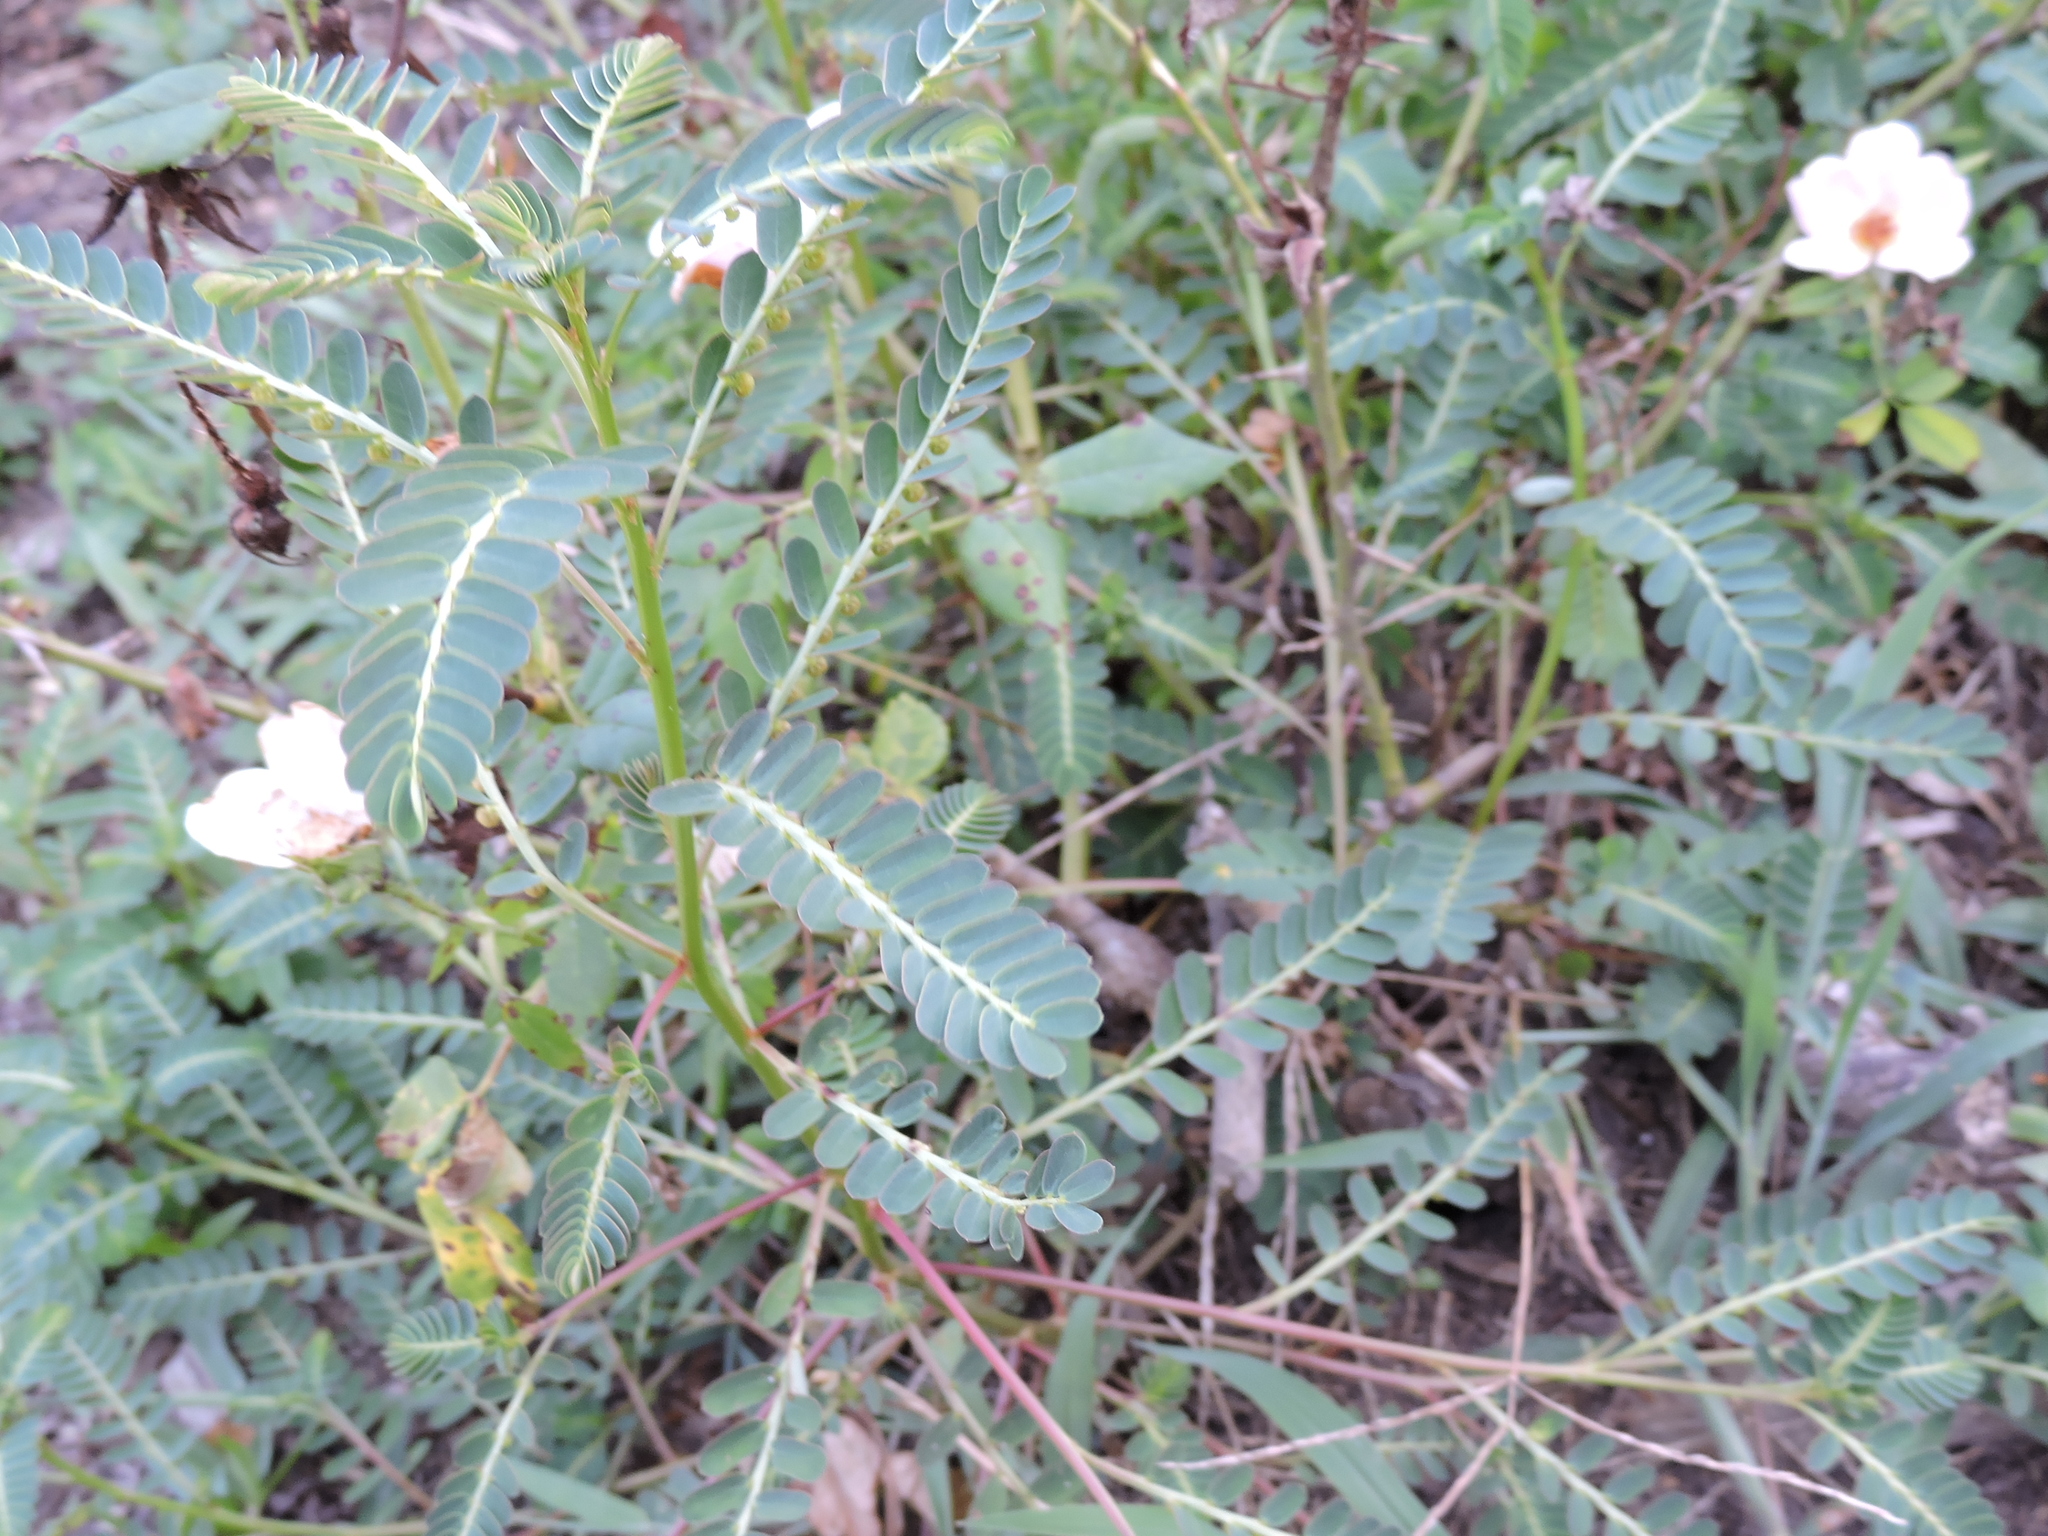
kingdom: Plantae
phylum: Tracheophyta
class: Magnoliopsida
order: Malpighiales
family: Phyllanthaceae
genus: Phyllanthus
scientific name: Phyllanthus urinaria
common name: Chamber bitter
